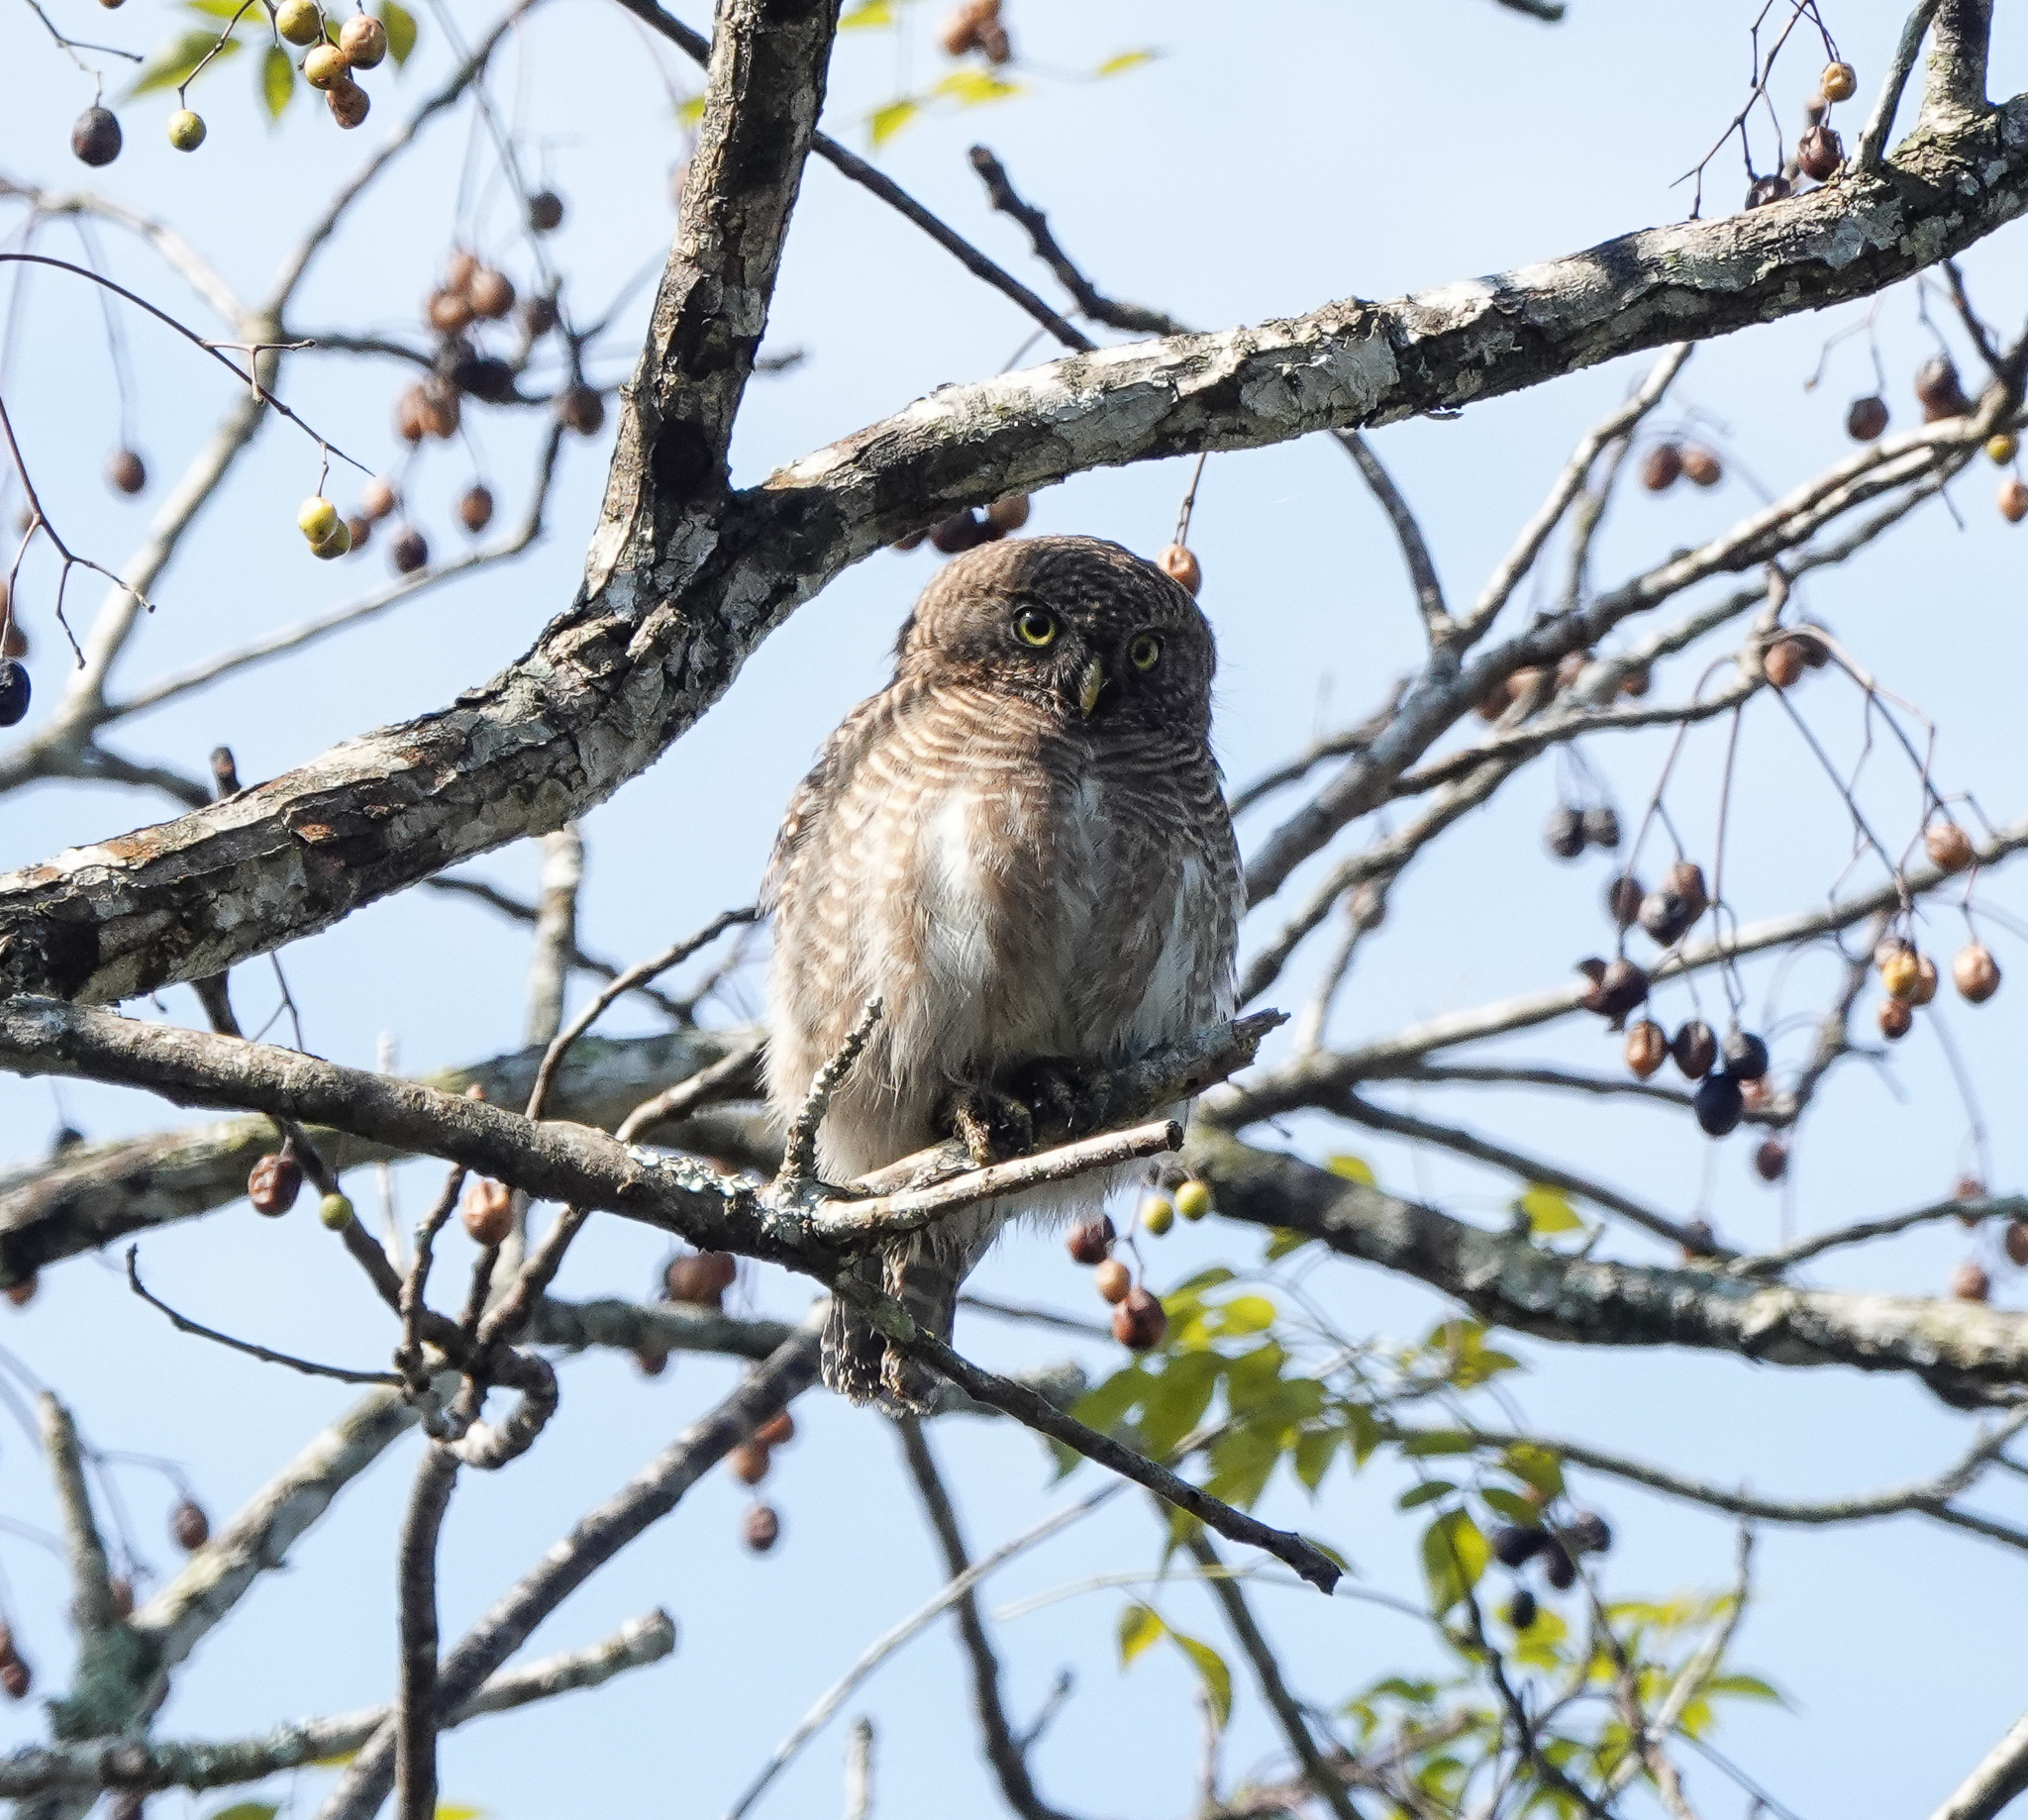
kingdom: Animalia
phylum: Chordata
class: Aves
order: Strigiformes
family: Strigidae
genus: Glaucidium
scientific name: Glaucidium cuculoides
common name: Asian barred owlet
